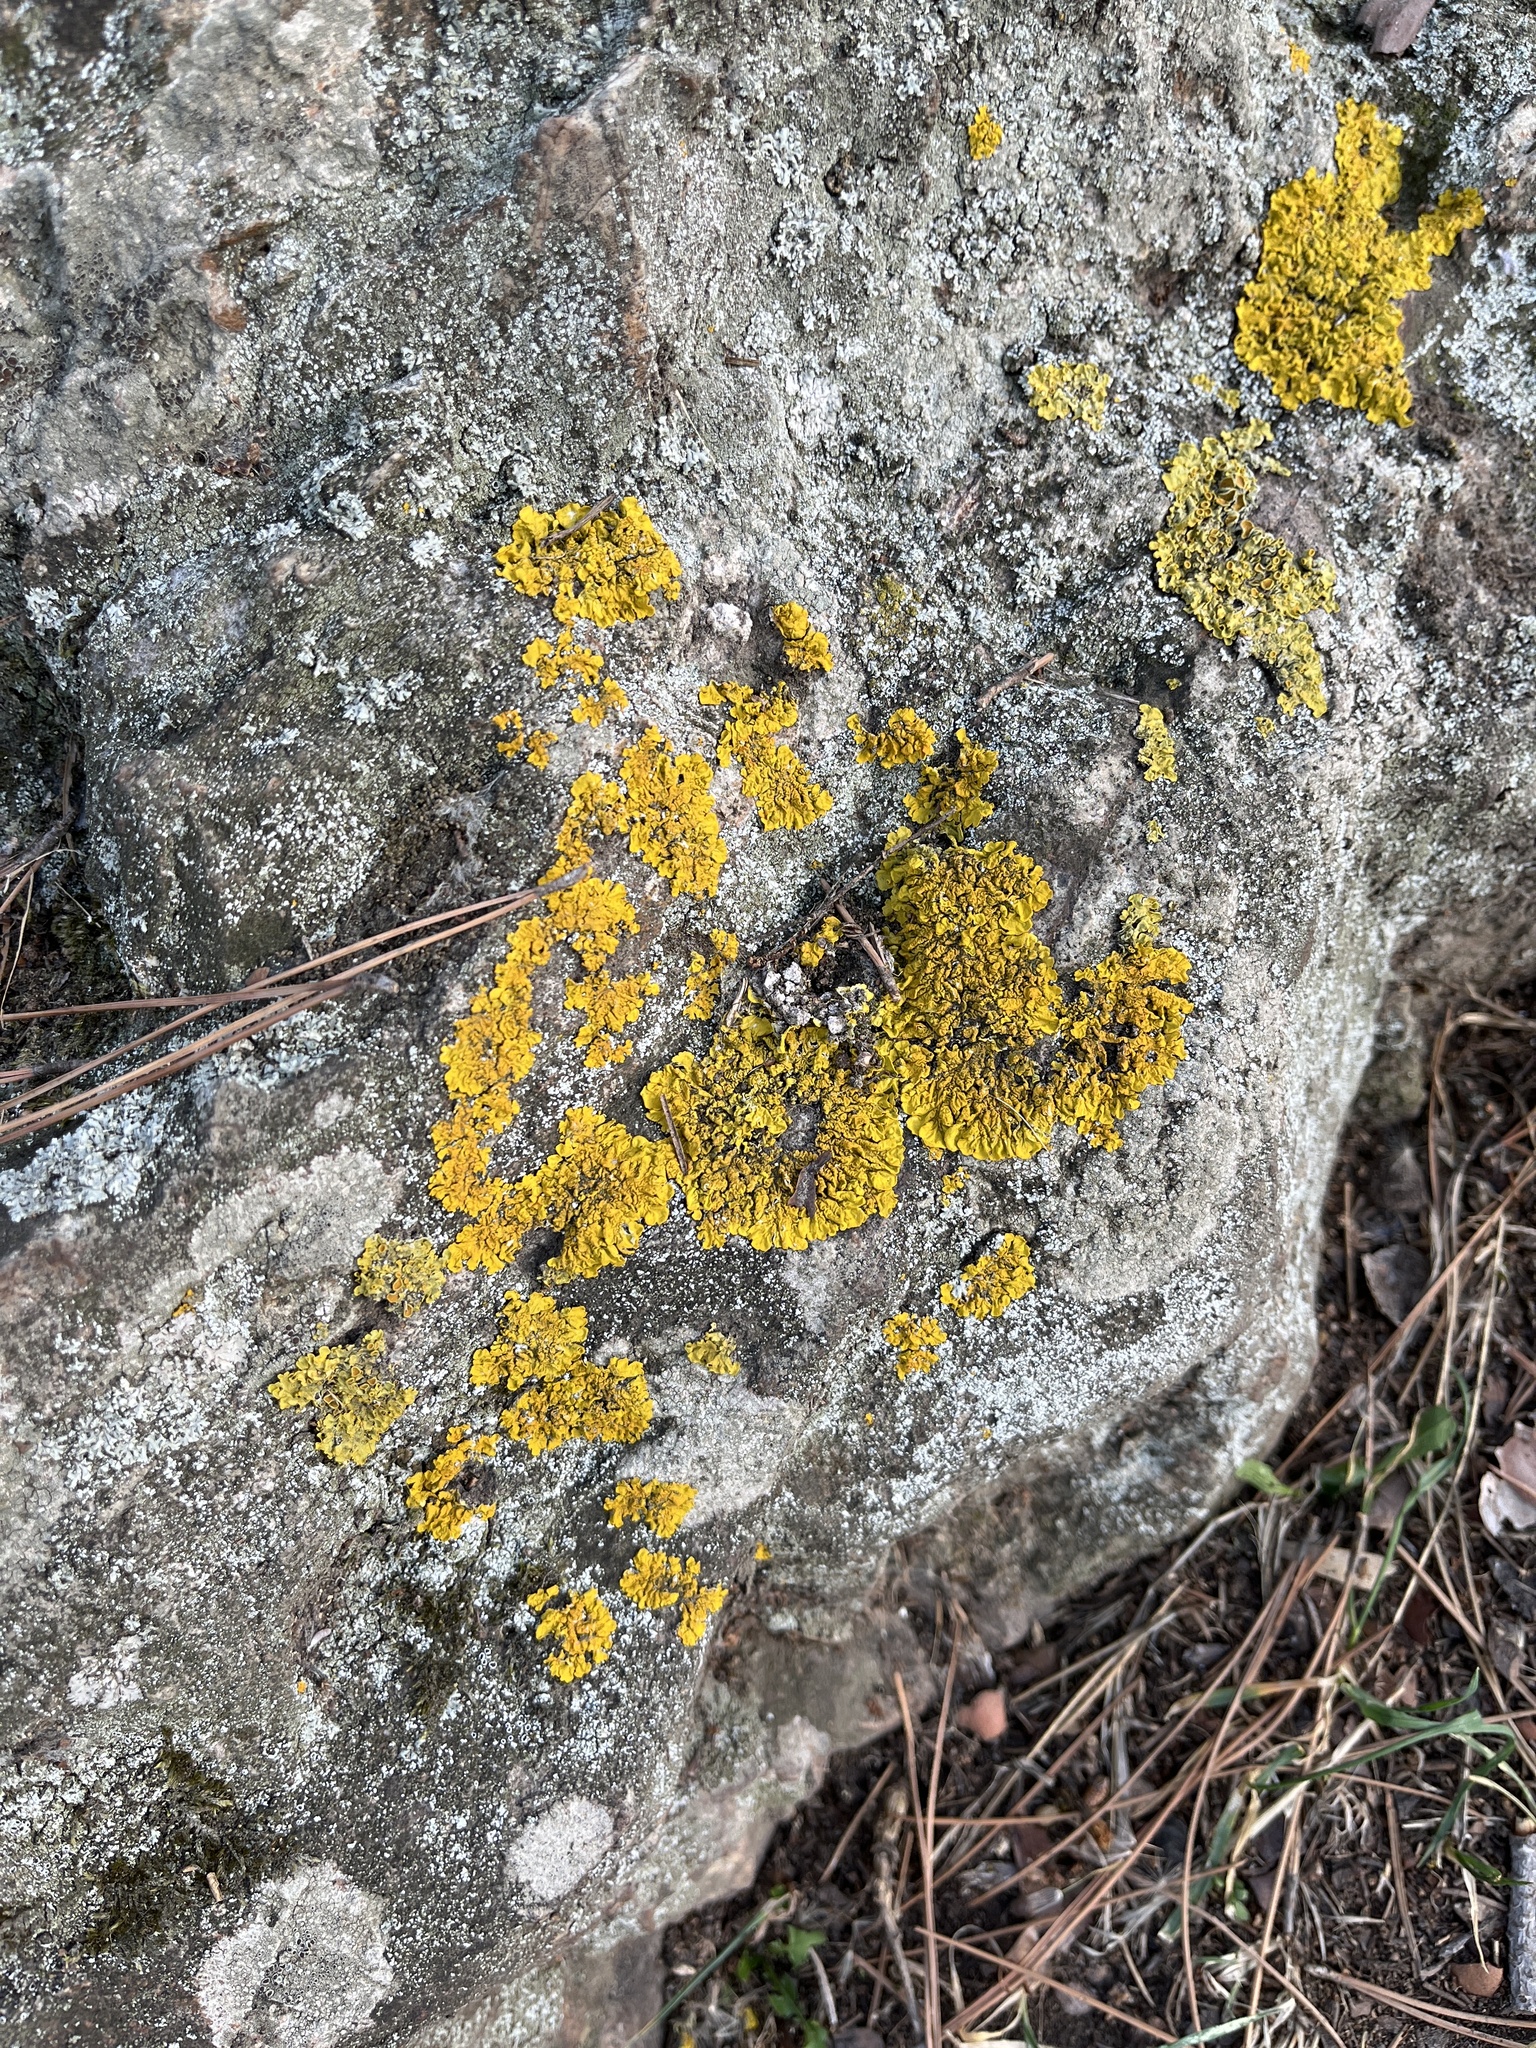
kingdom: Fungi
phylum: Ascomycota
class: Lecanoromycetes
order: Teloschistales
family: Teloschistaceae
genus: Xanthoria
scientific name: Xanthoria parietina
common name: Common orange lichen
